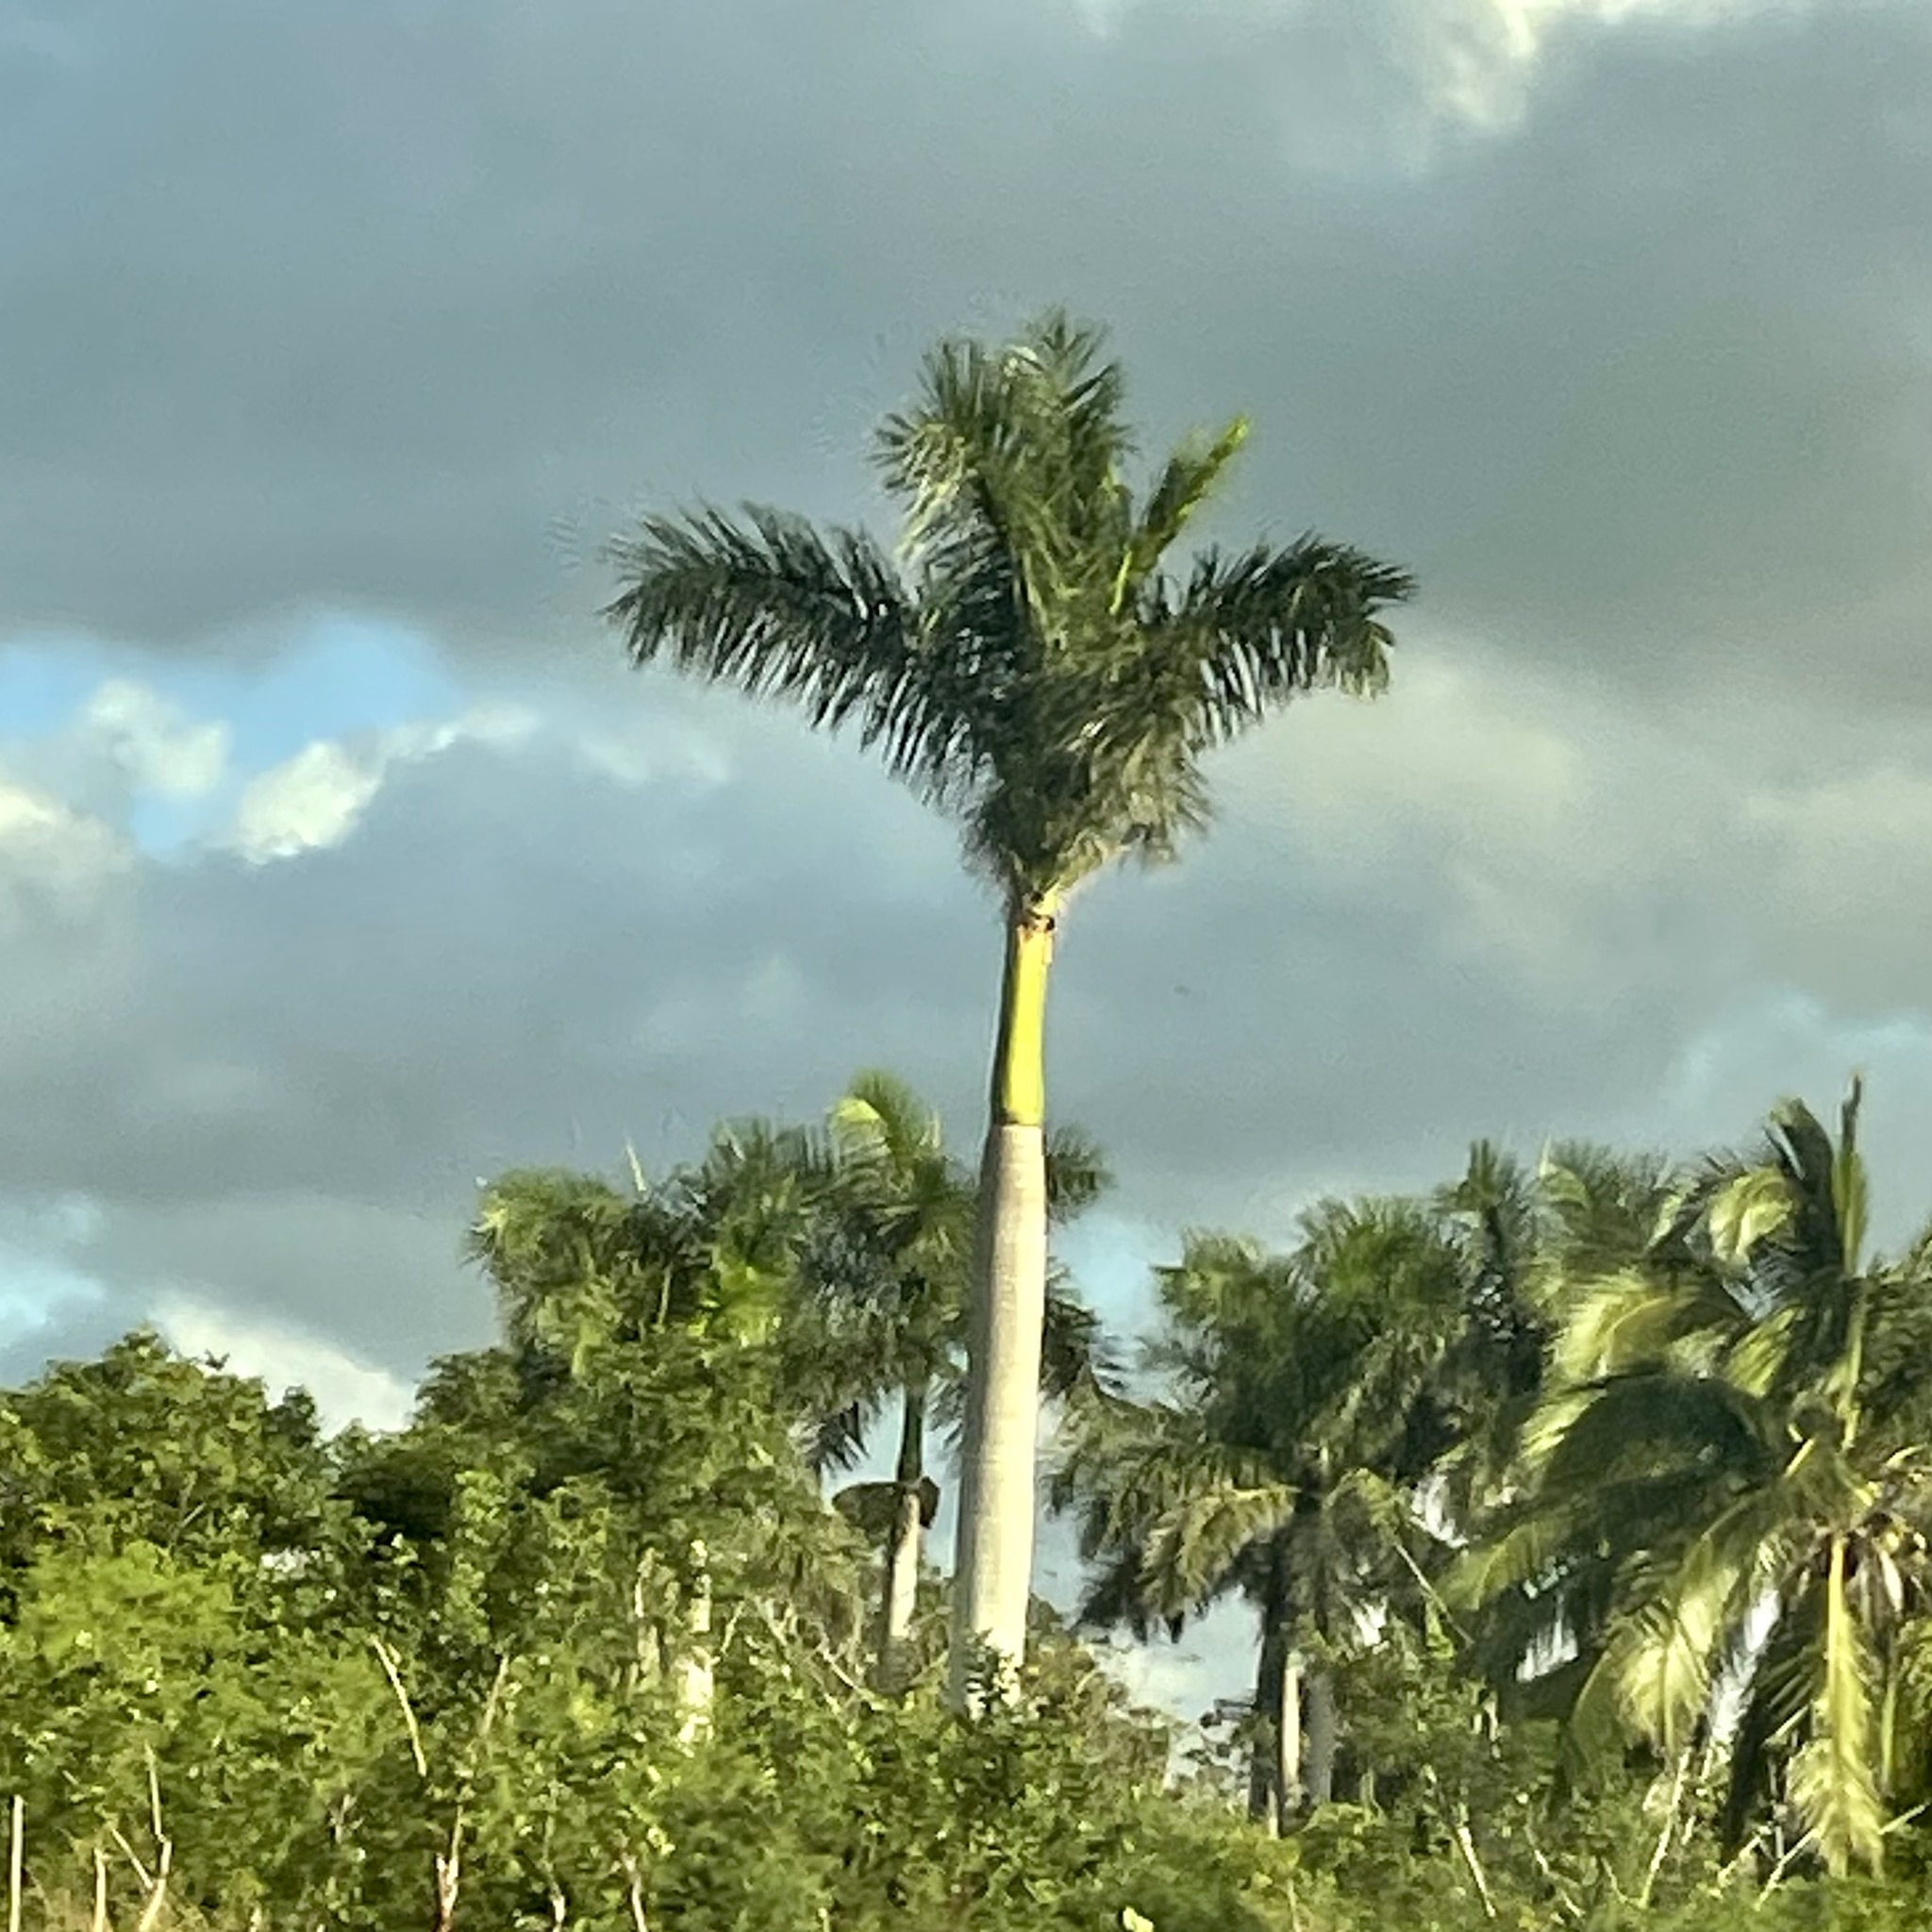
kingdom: Plantae
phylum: Tracheophyta
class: Liliopsida
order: Arecales
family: Arecaceae
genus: Roystonea
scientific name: Roystonea regia
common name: Florida royal palm
